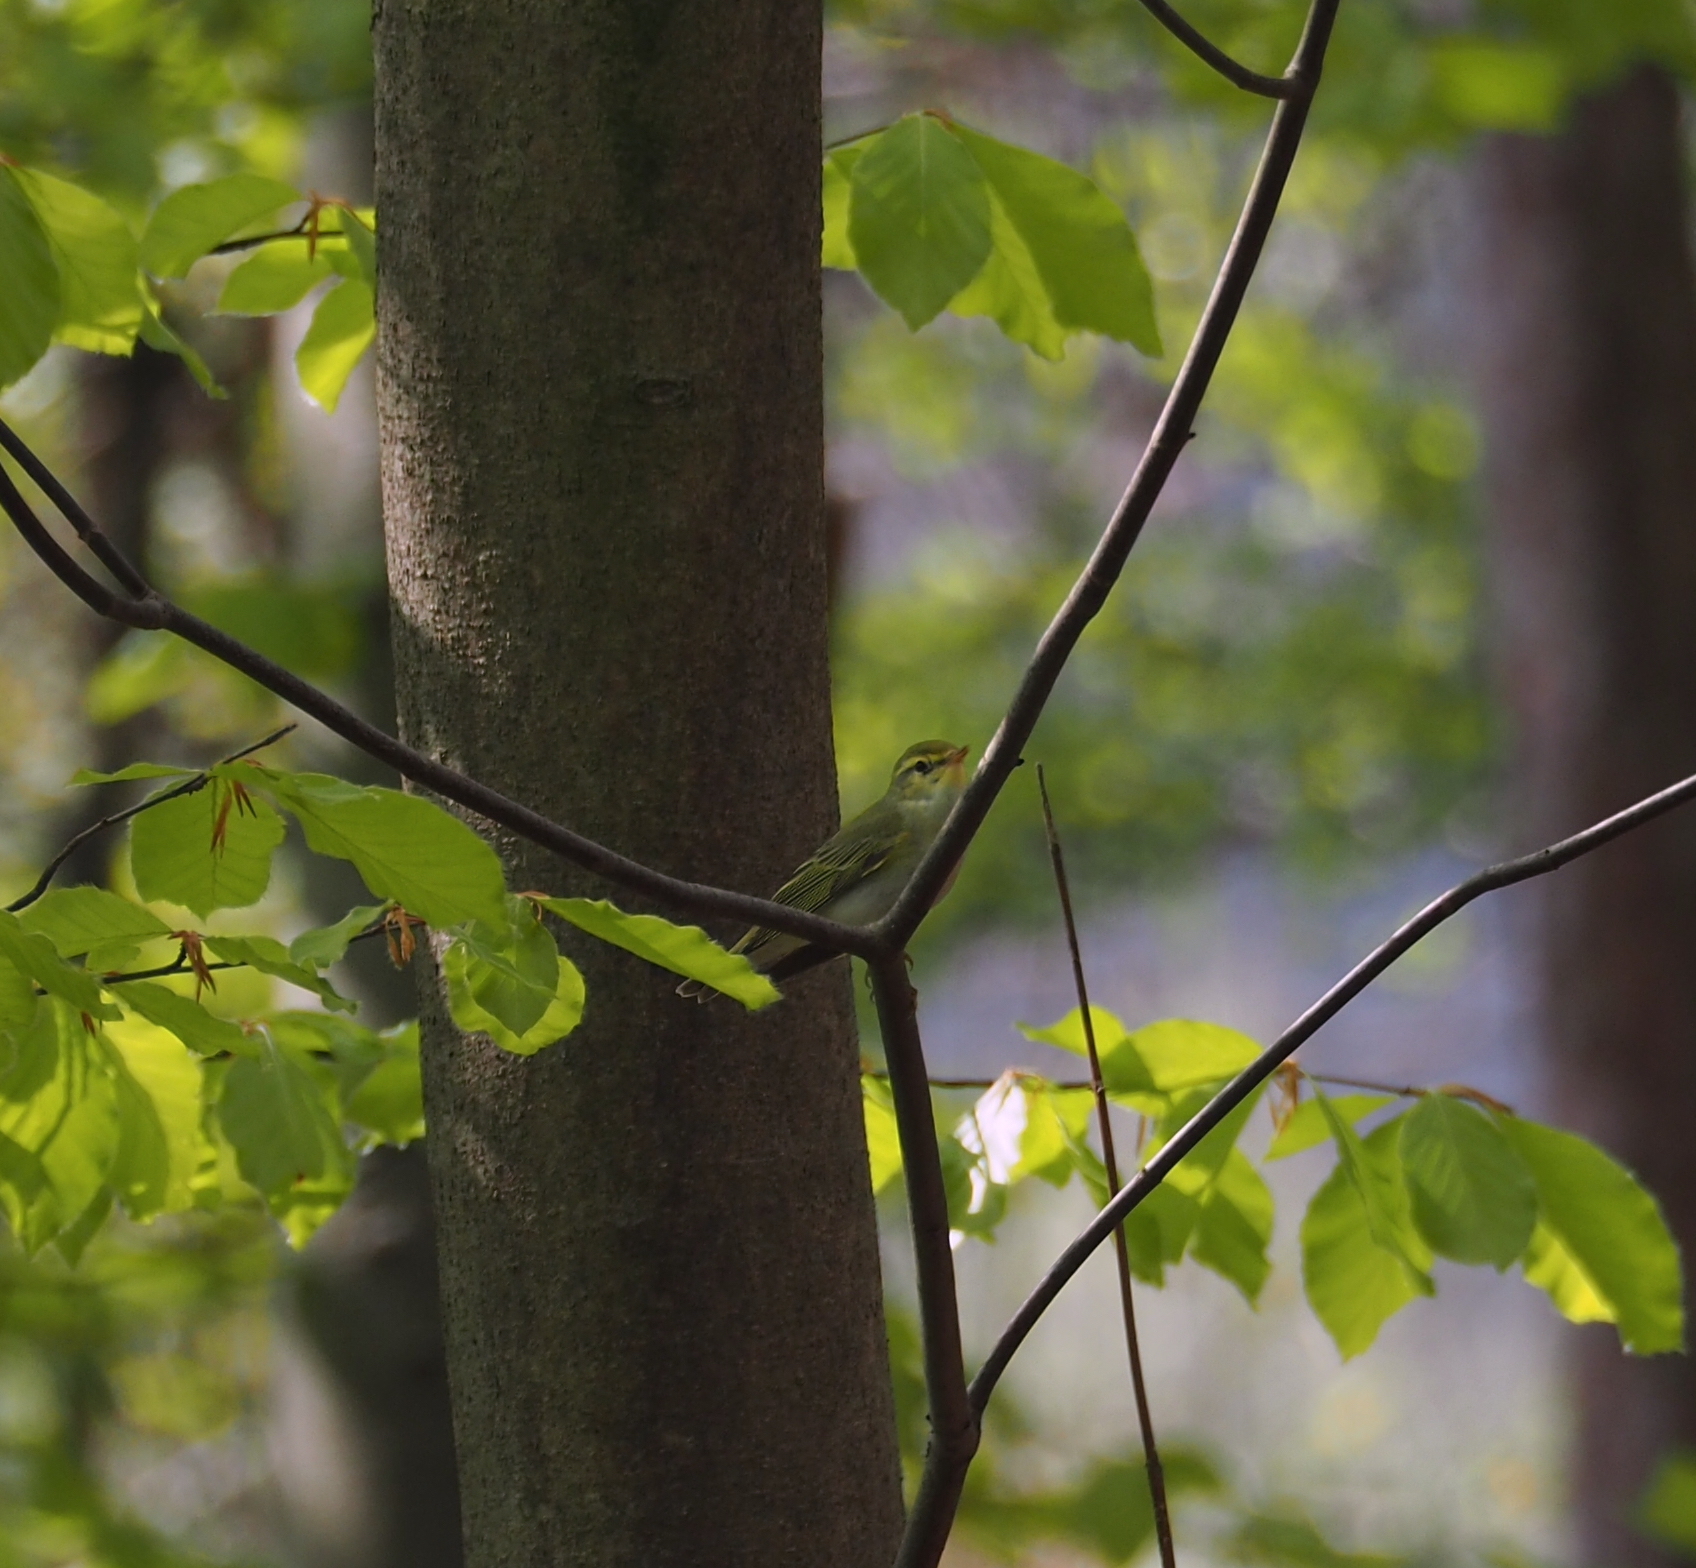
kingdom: Animalia
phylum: Chordata
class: Aves
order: Passeriformes
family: Phylloscopidae
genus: Phylloscopus
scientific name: Phylloscopus sibillatrix
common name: Wood warbler
